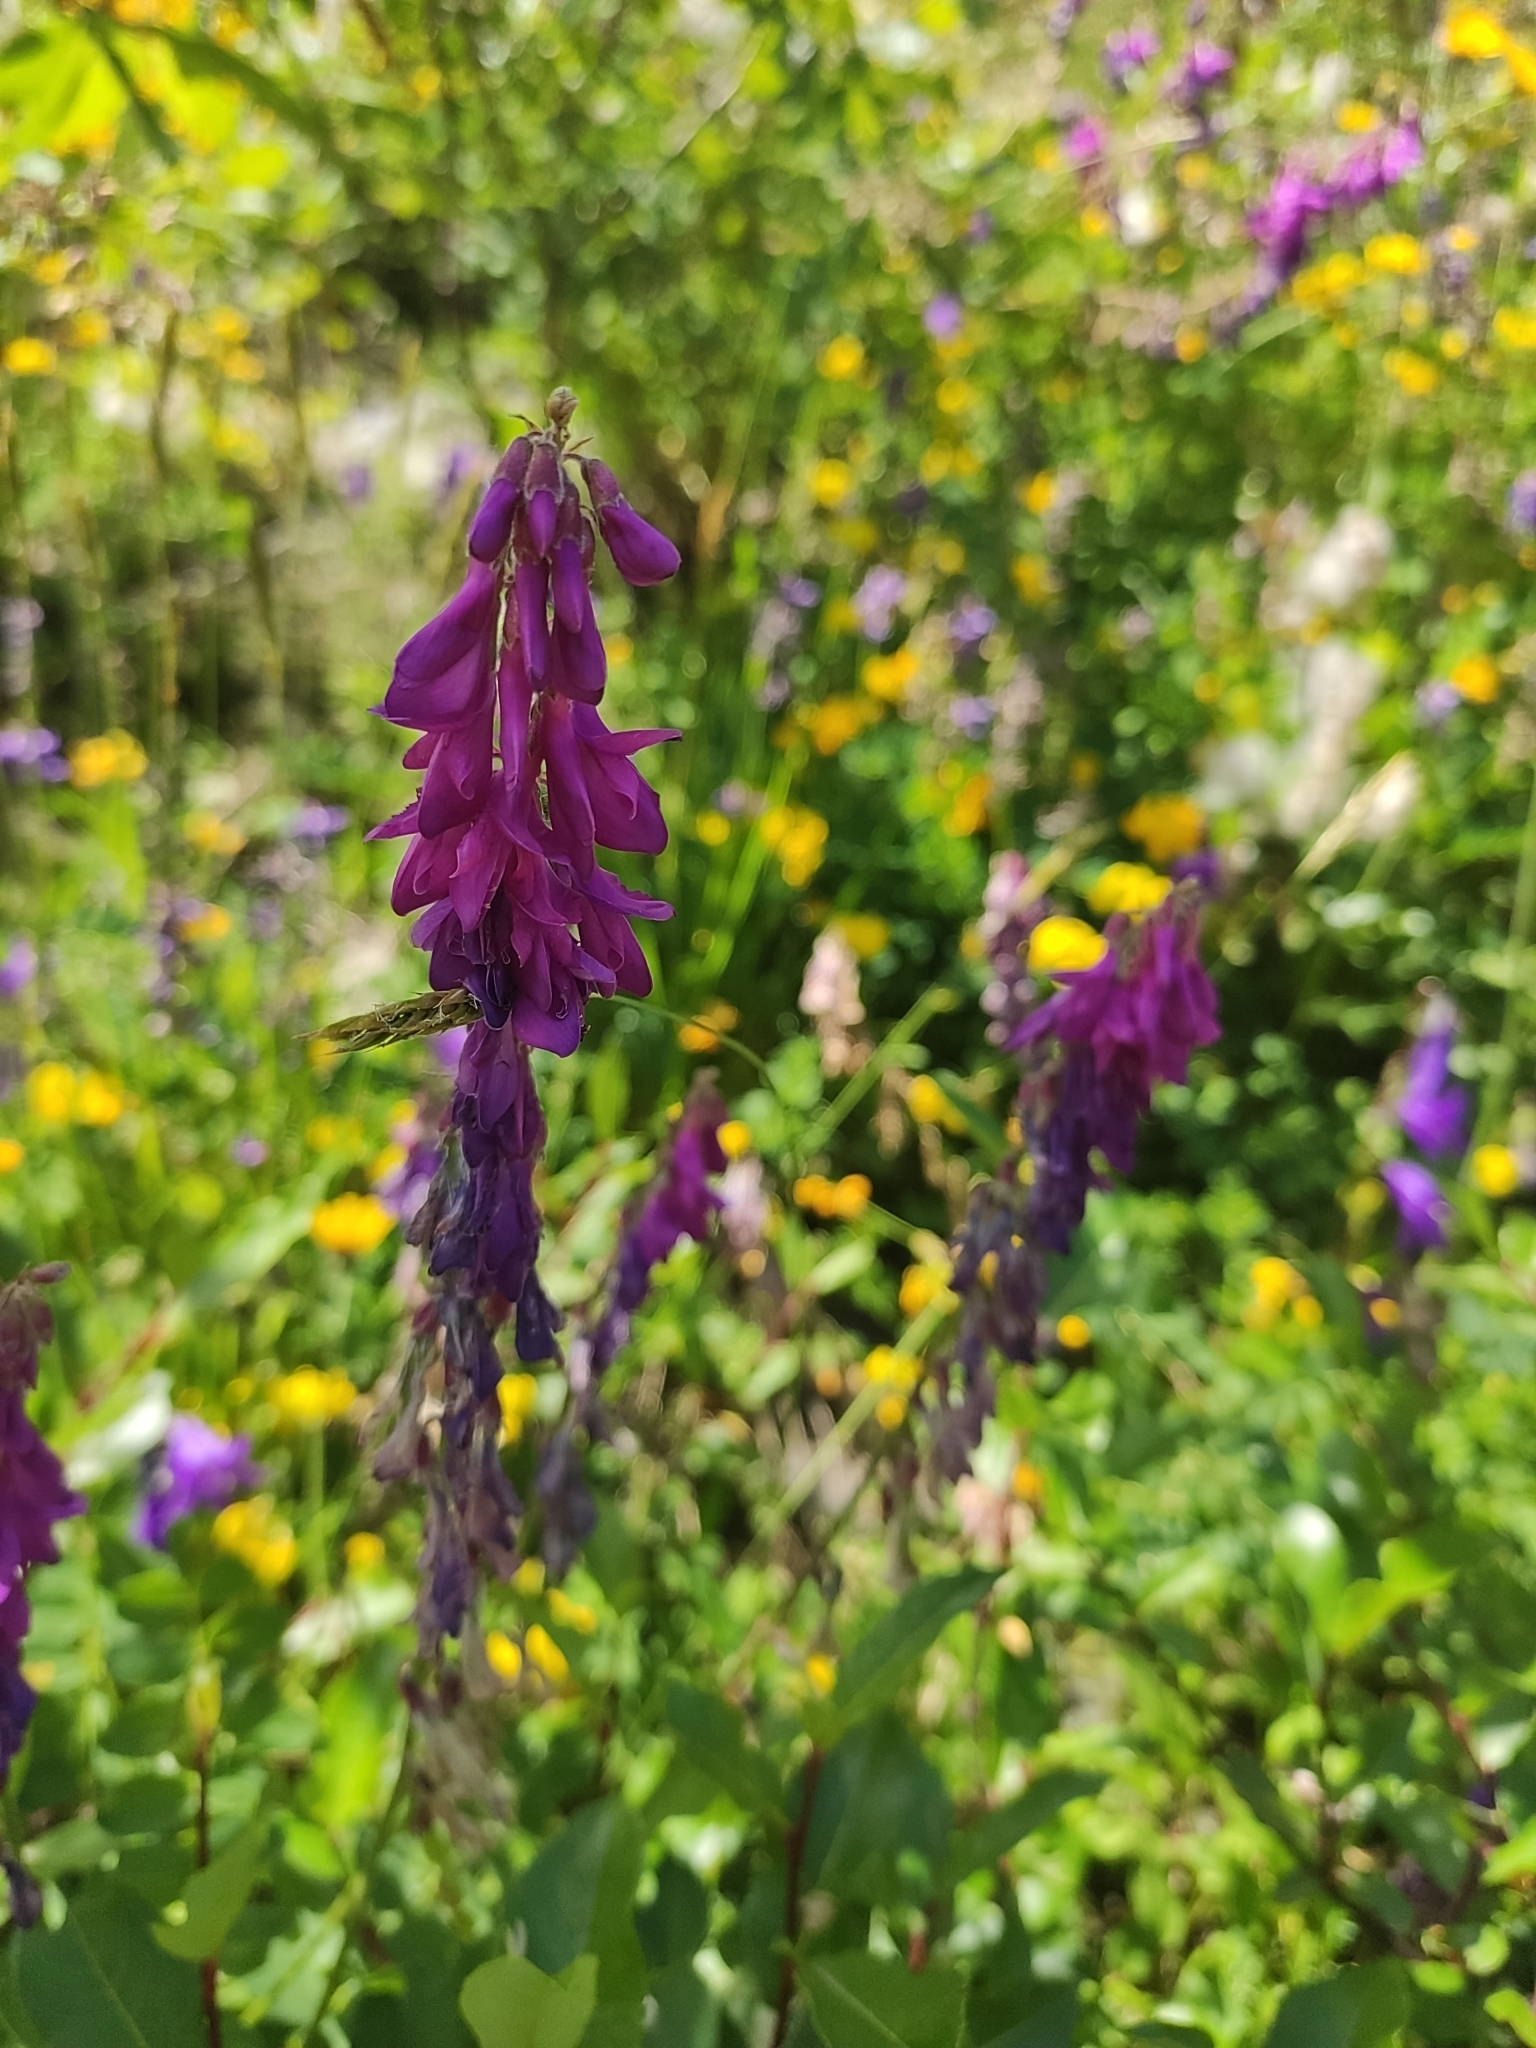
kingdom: Plantae
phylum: Tracheophyta
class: Magnoliopsida
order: Fabales
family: Fabaceae
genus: Hedysarum
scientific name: Hedysarum caucasicum
